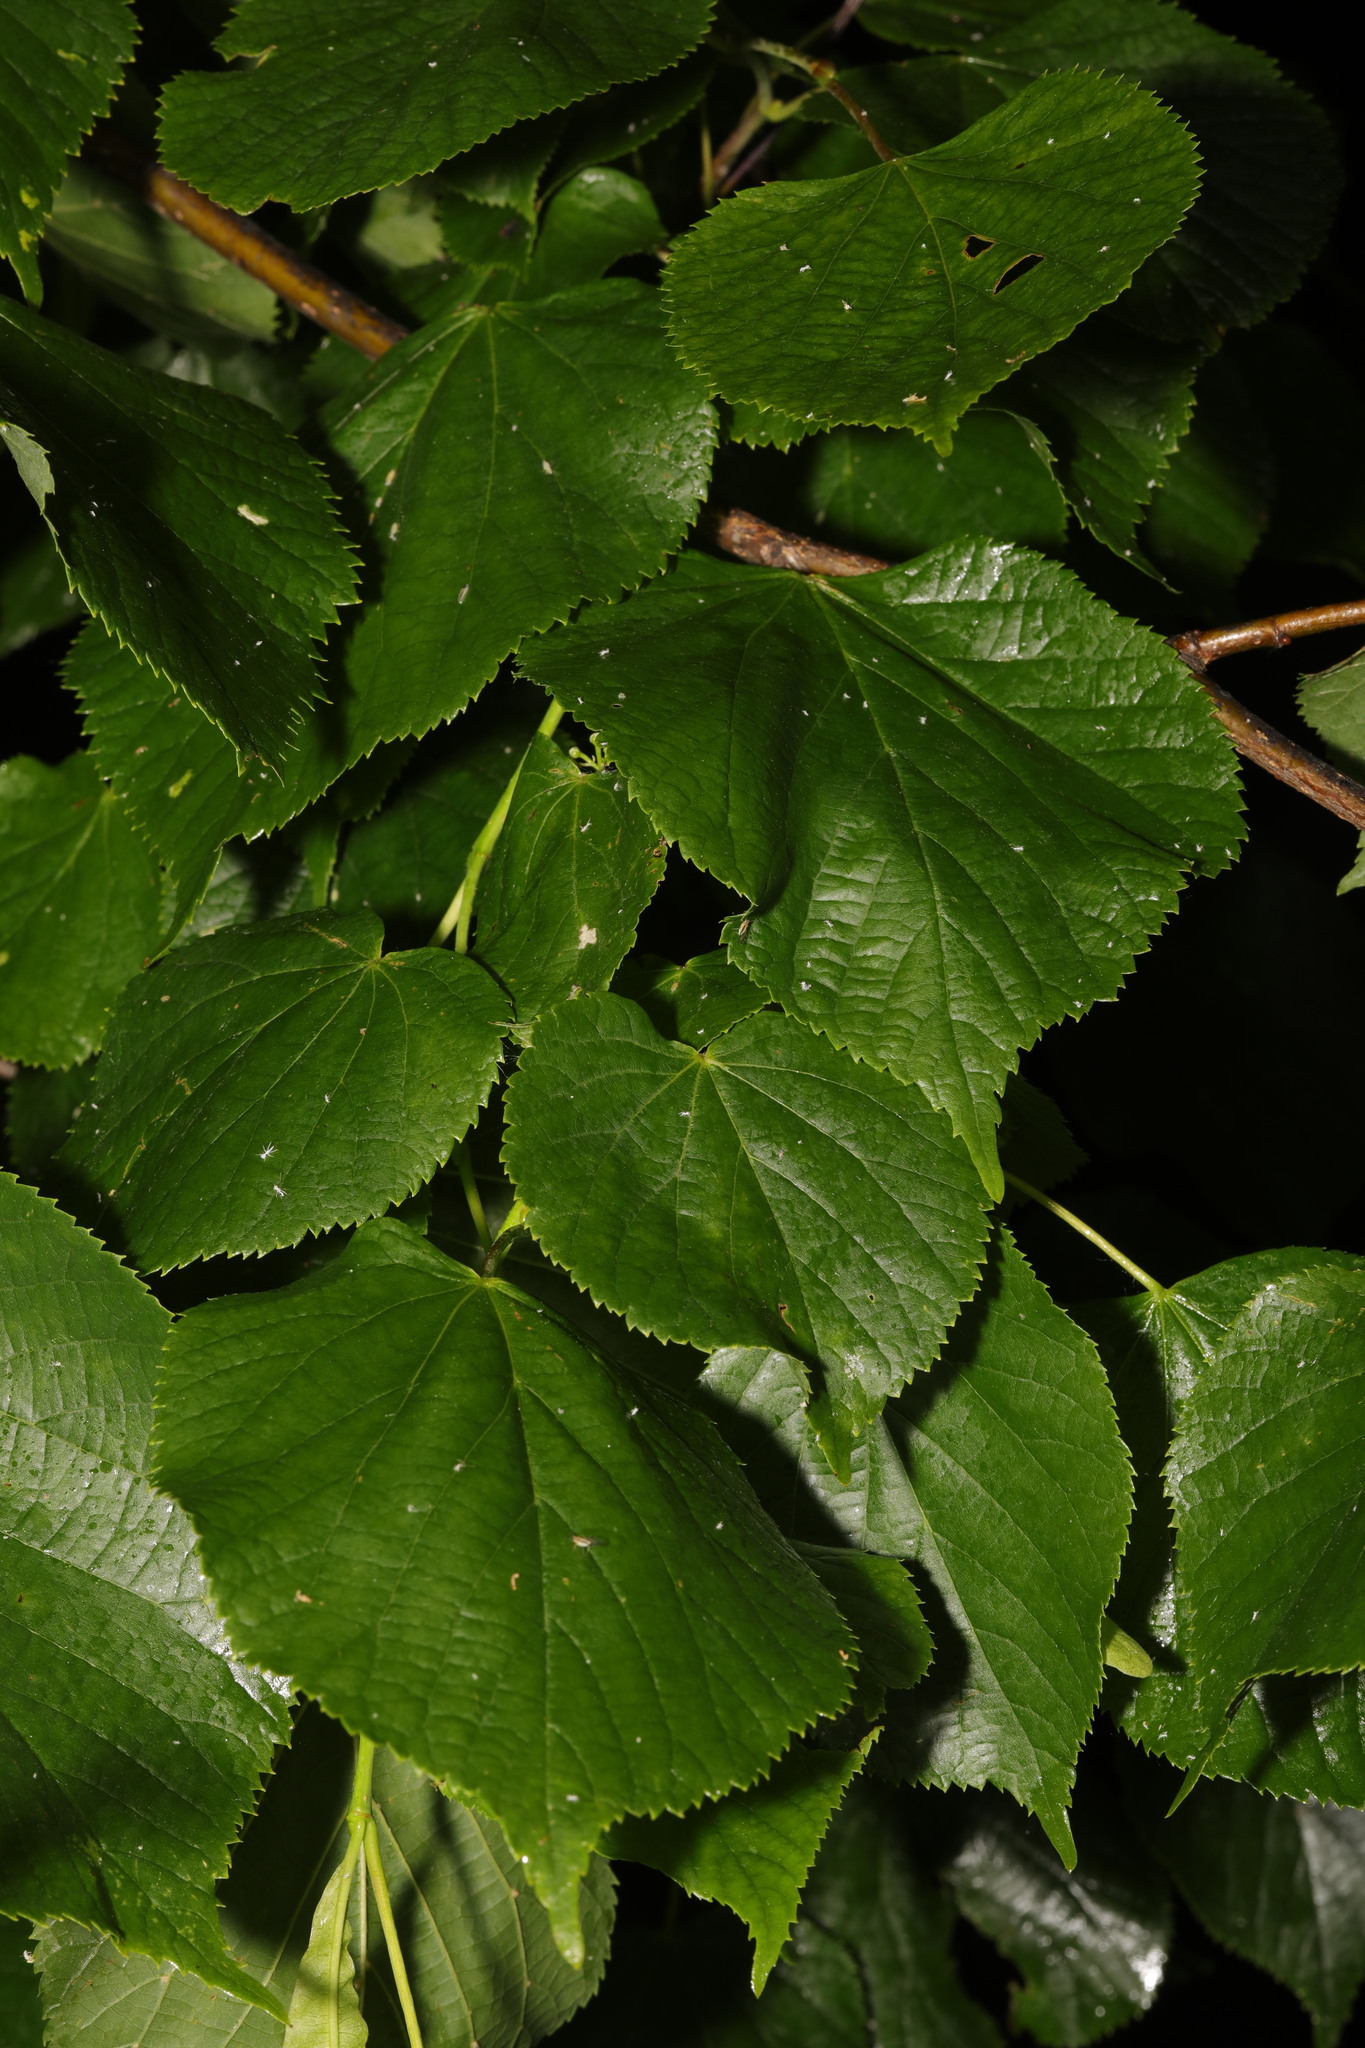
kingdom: Plantae
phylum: Tracheophyta
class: Magnoliopsida
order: Malvales
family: Malvaceae
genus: Tilia
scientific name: Tilia europaea
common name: European linden
